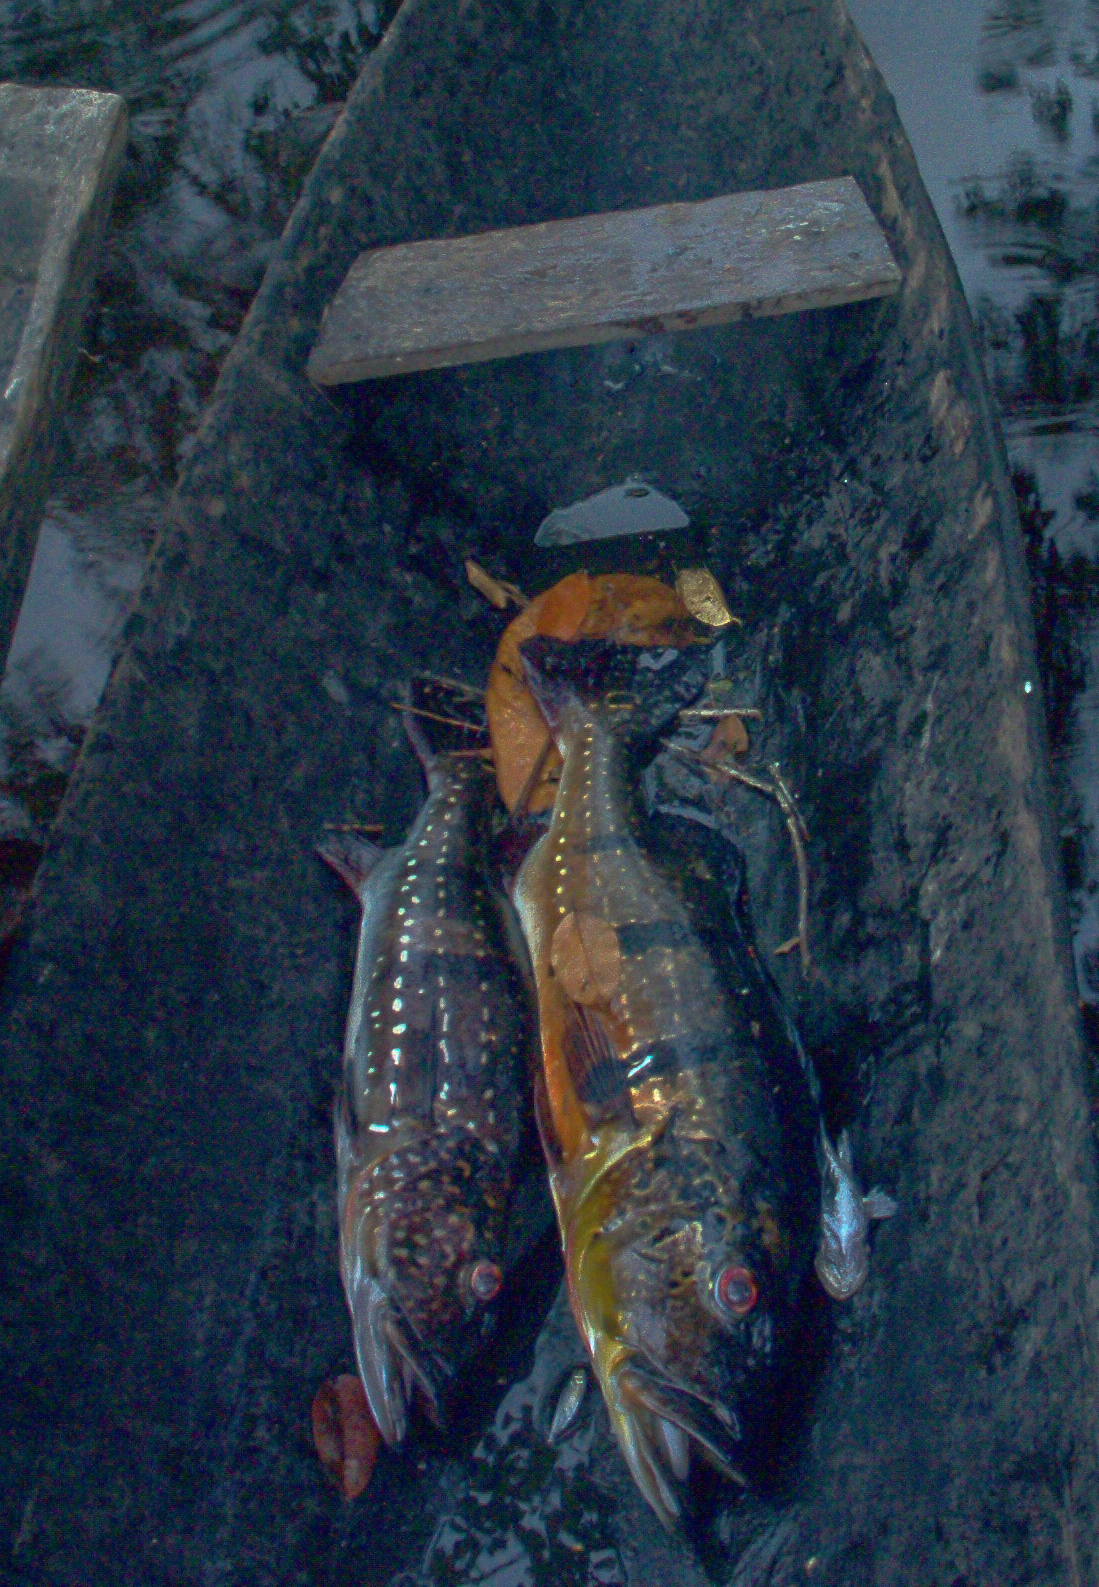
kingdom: Animalia
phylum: Chordata
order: Perciformes
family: Cichlidae
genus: Cichla
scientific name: Cichla temensis
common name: Speckled pavon
